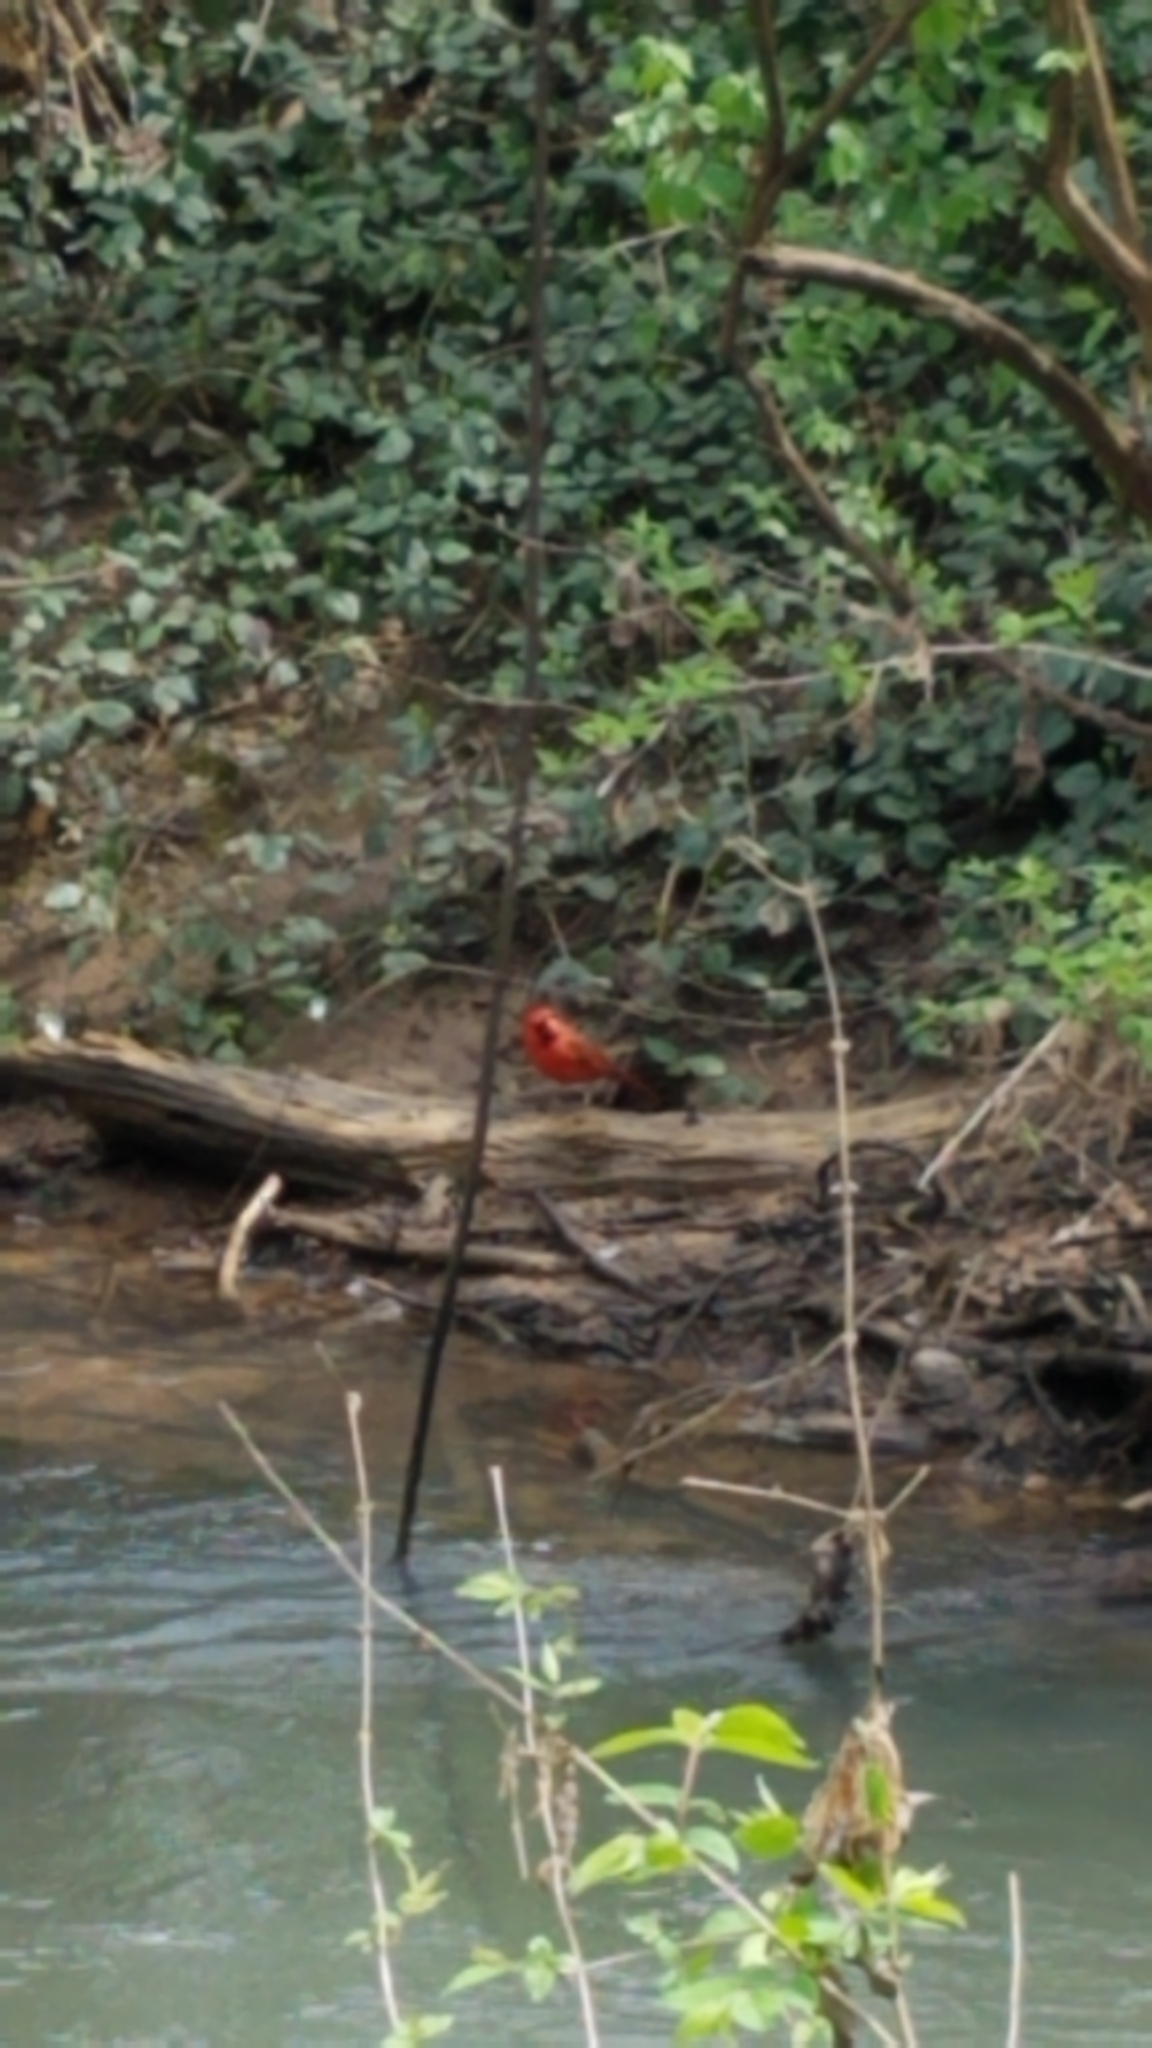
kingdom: Animalia
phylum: Chordata
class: Aves
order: Passeriformes
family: Cardinalidae
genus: Cardinalis
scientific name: Cardinalis cardinalis
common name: Northern cardinal
